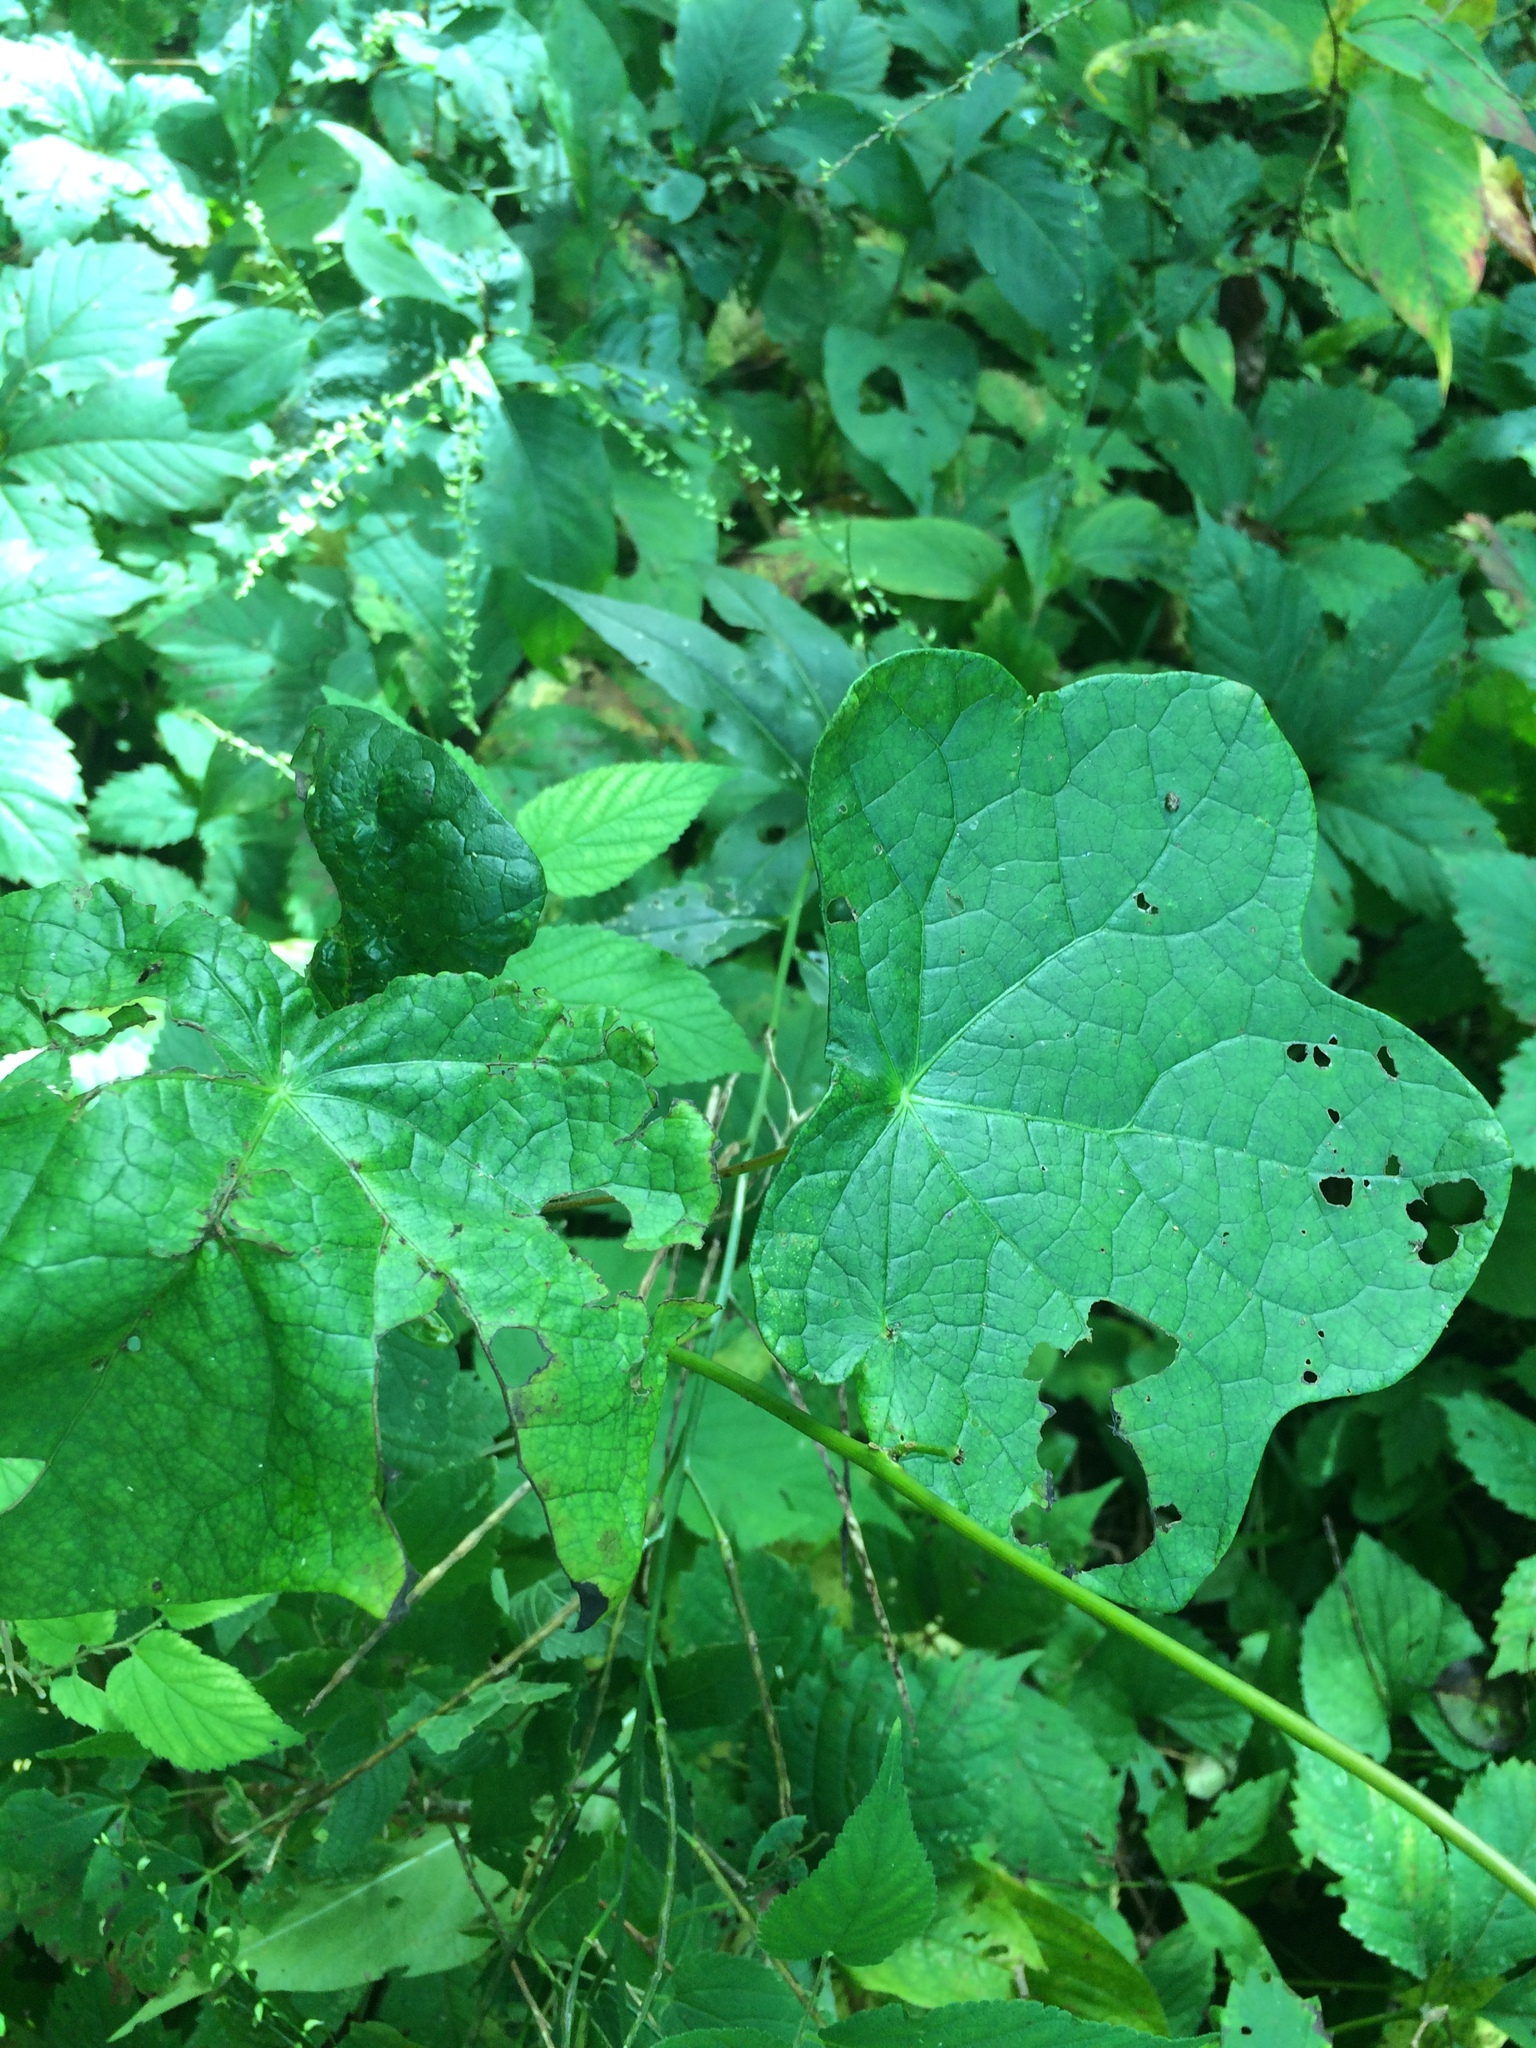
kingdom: Plantae
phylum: Tracheophyta
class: Magnoliopsida
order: Ranunculales
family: Menispermaceae
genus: Menispermum
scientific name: Menispermum canadense
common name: Moonseed
